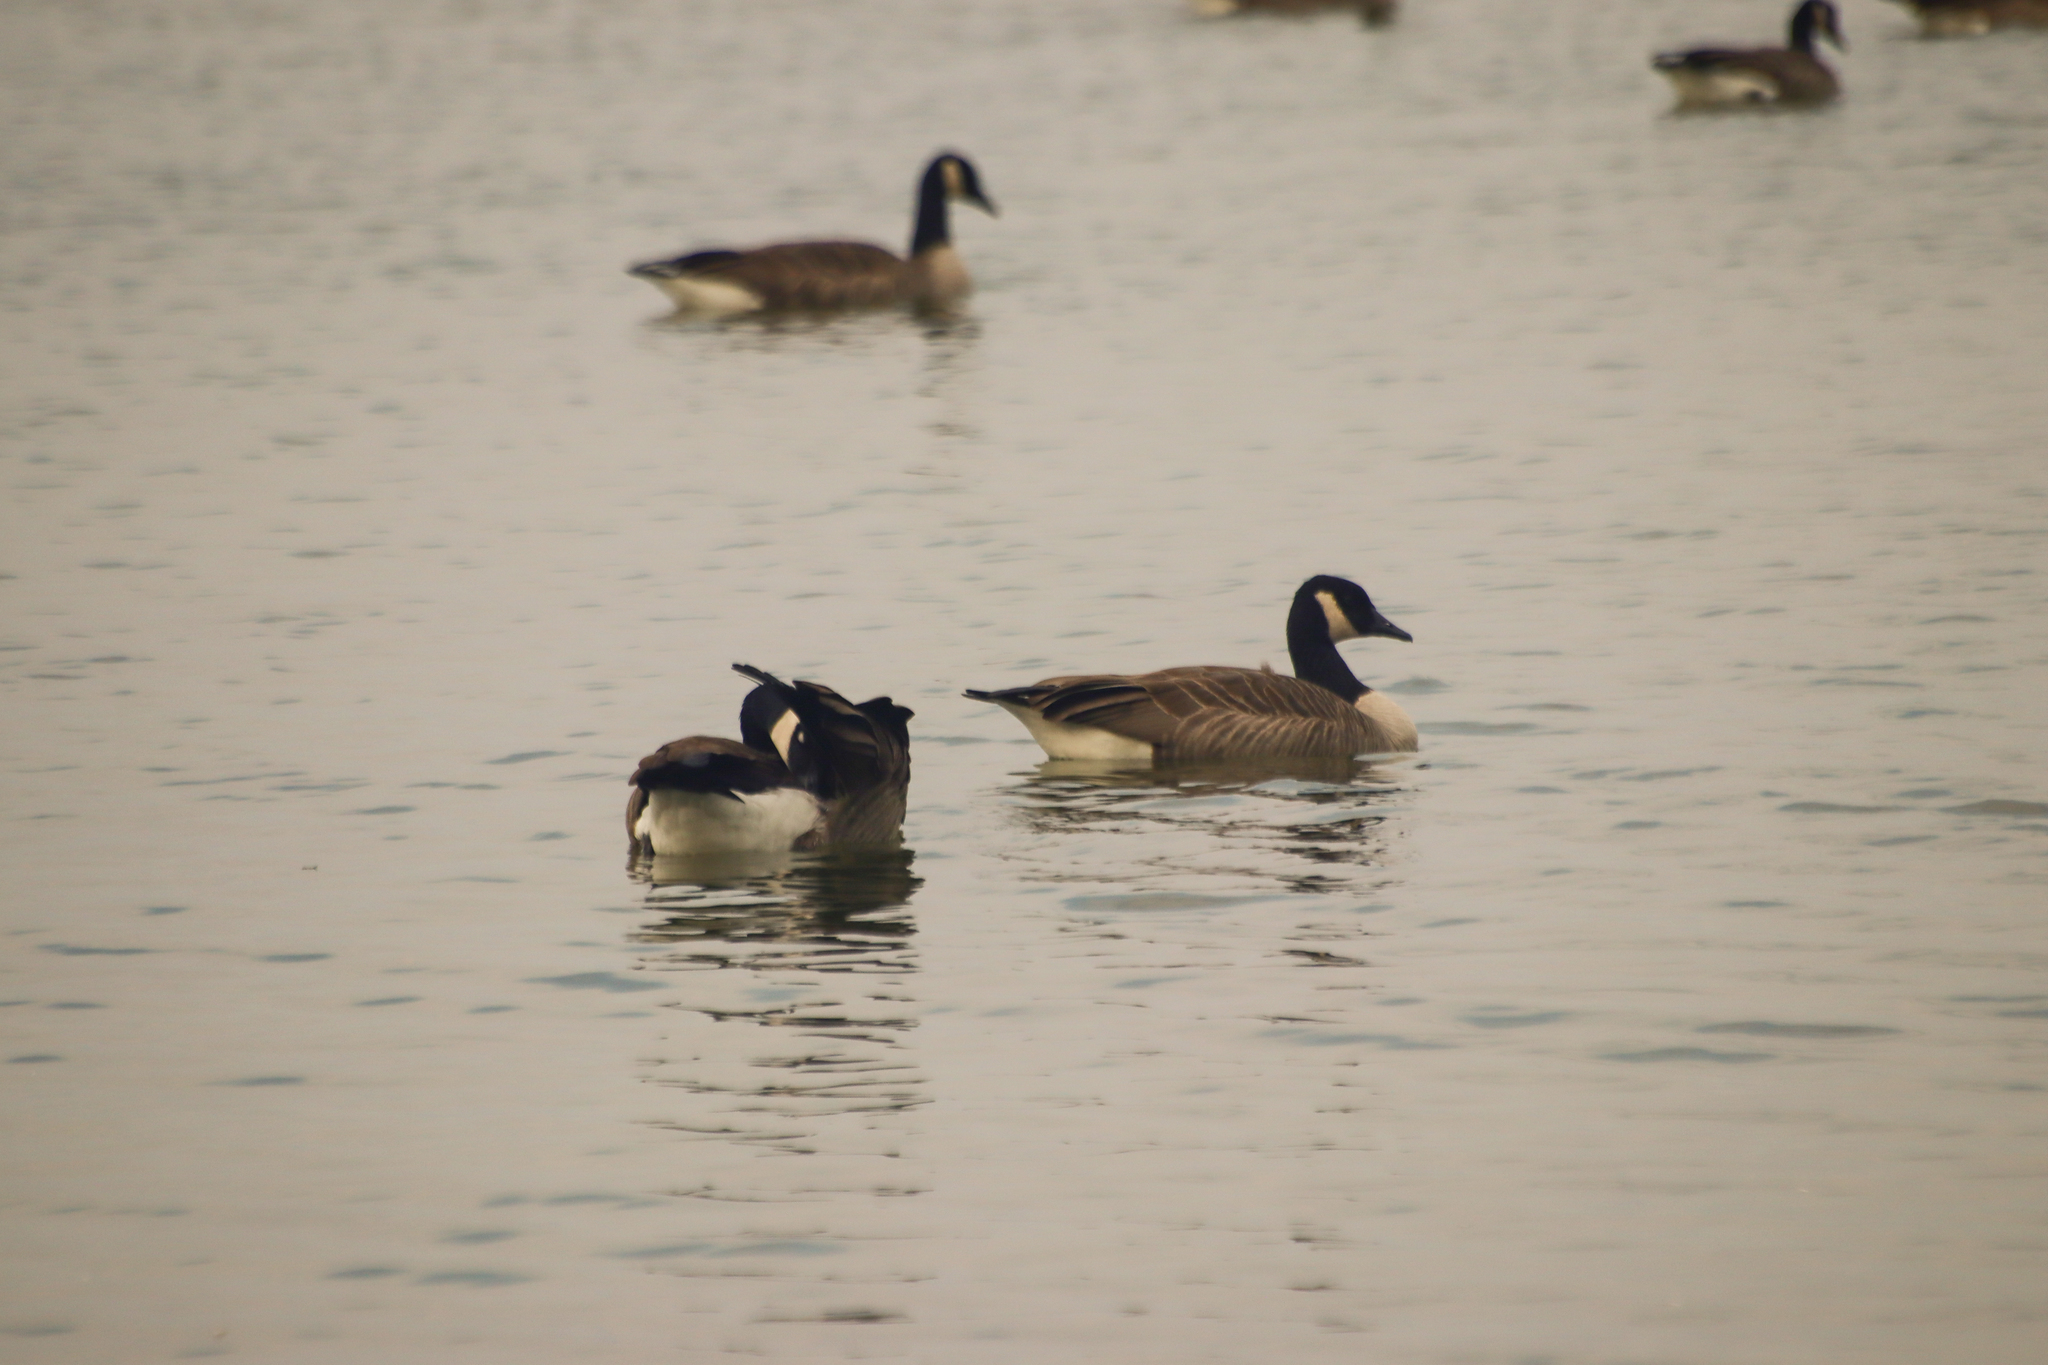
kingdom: Animalia
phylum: Chordata
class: Aves
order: Anseriformes
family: Anatidae
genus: Branta
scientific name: Branta canadensis
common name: Canada goose
